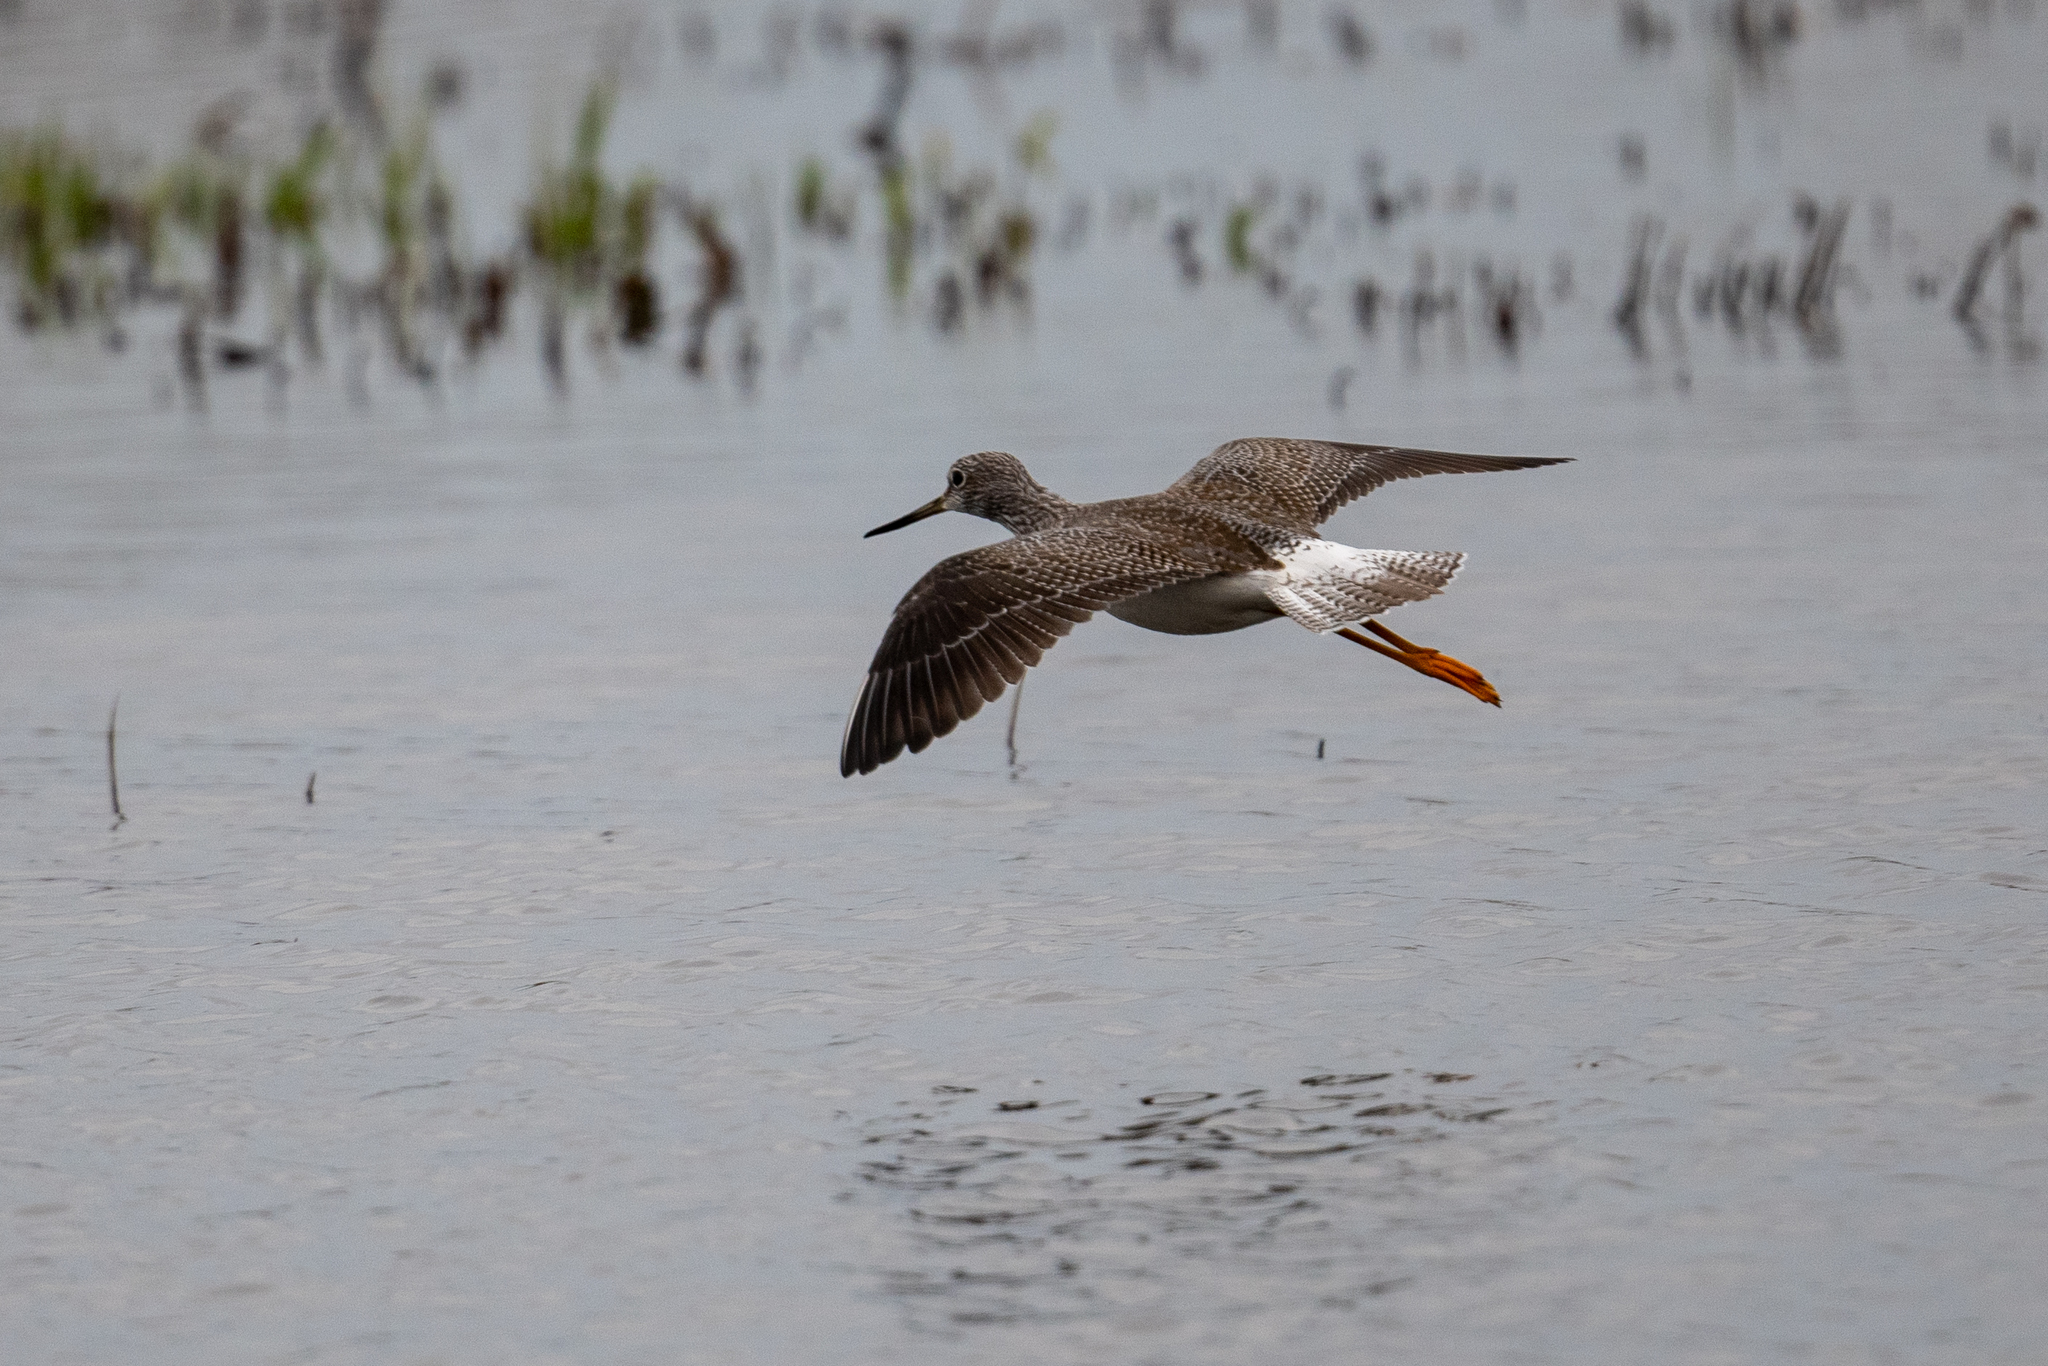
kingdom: Animalia
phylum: Chordata
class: Aves
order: Charadriiformes
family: Scolopacidae
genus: Tringa
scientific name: Tringa melanoleuca
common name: Greater yellowlegs
